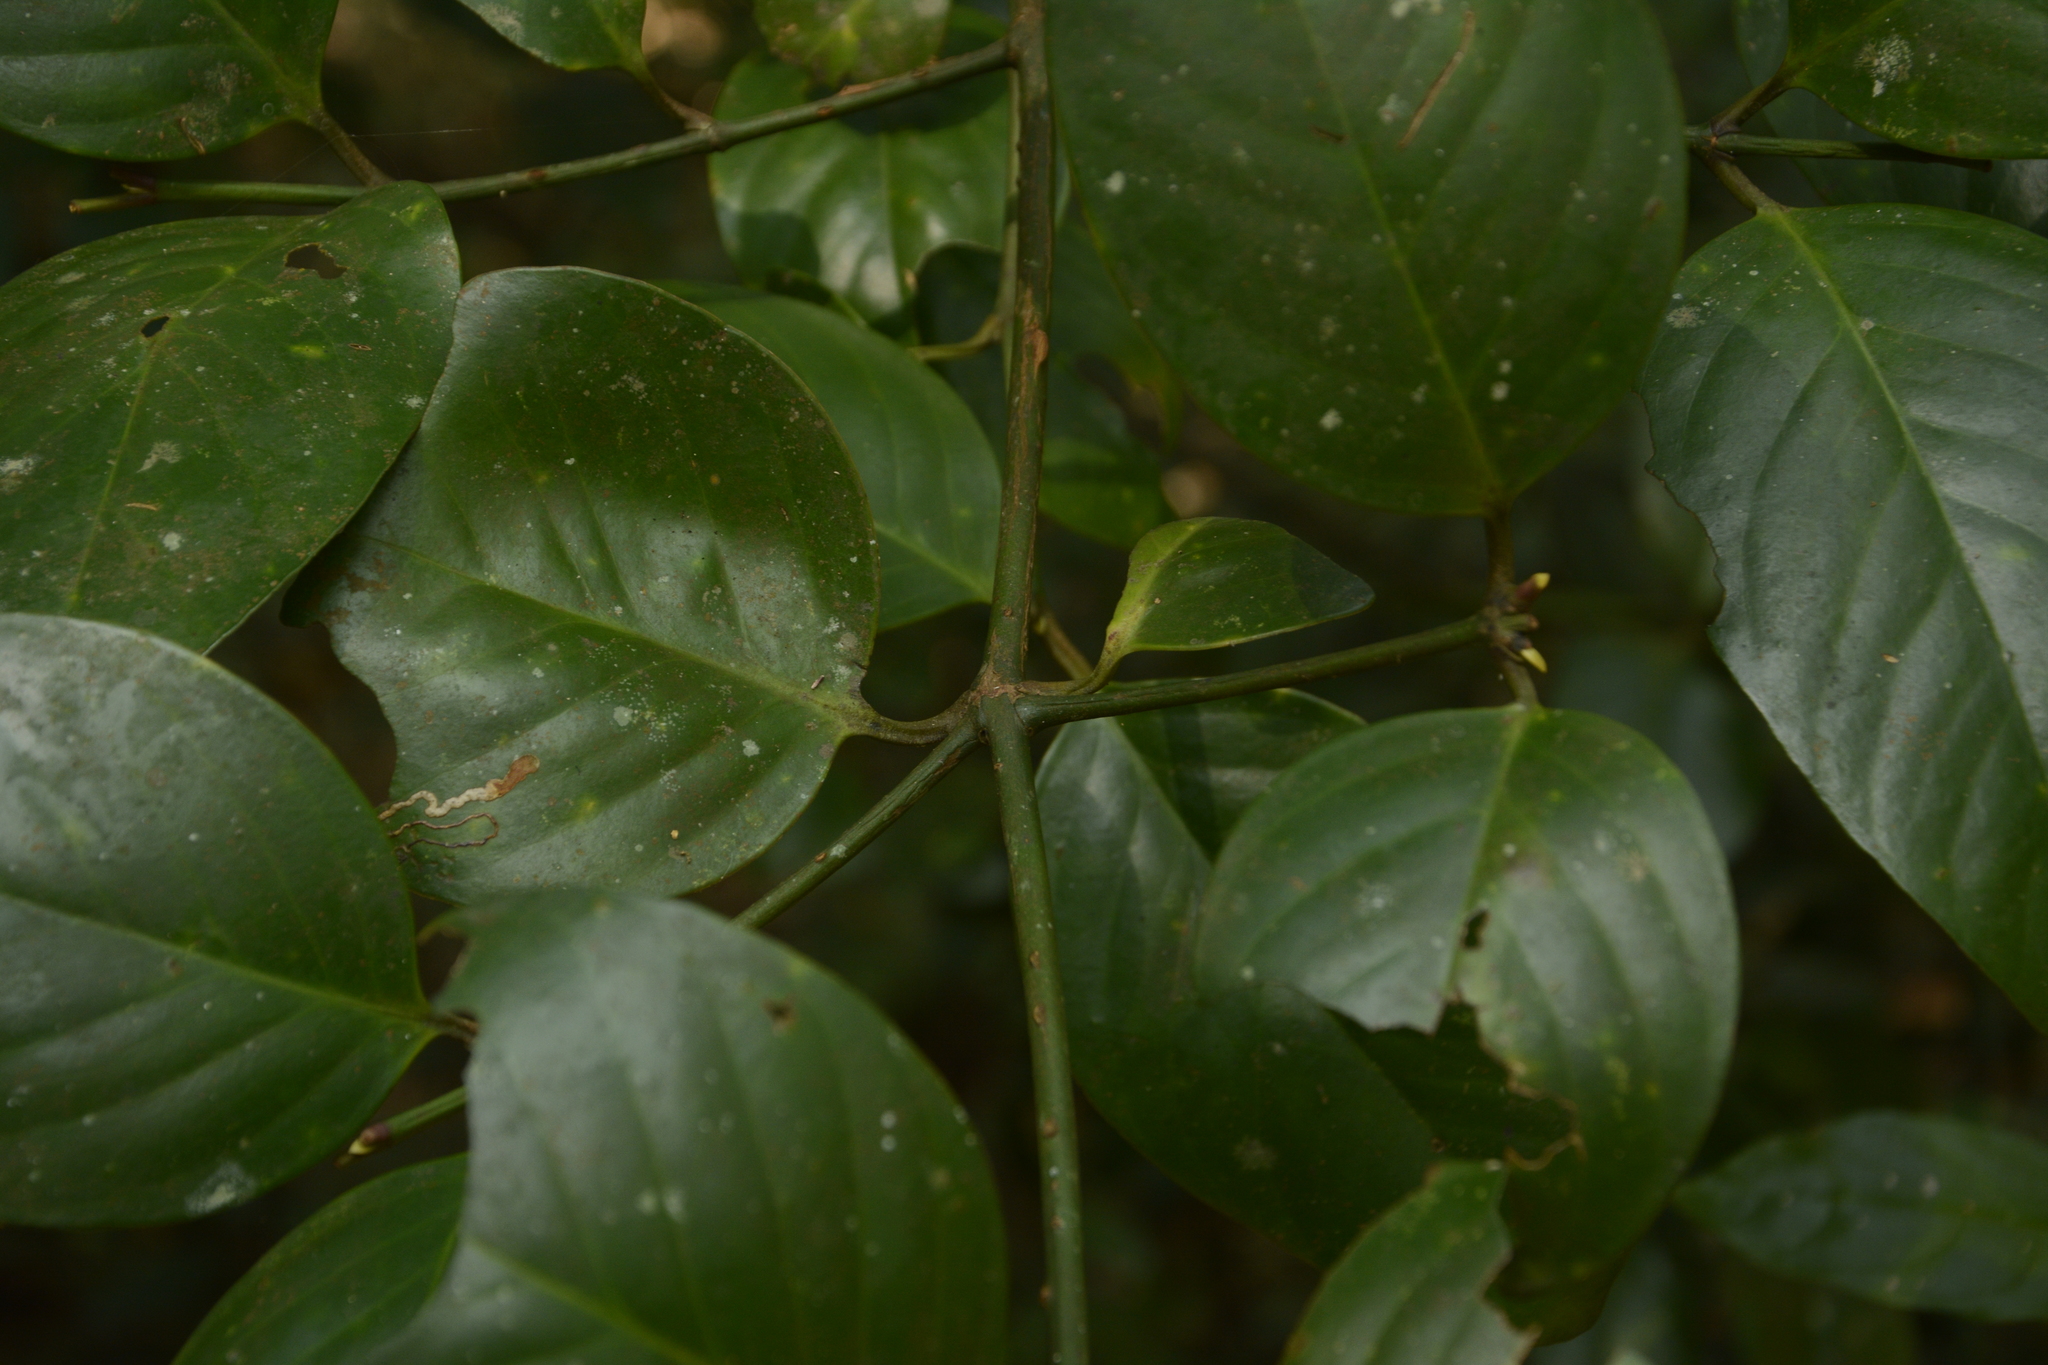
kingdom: Plantae
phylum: Tracheophyta
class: Magnoliopsida
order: Malpighiales
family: Clusiaceae
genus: Garcinia
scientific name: Garcinia morella
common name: Indian gamboge-tree
